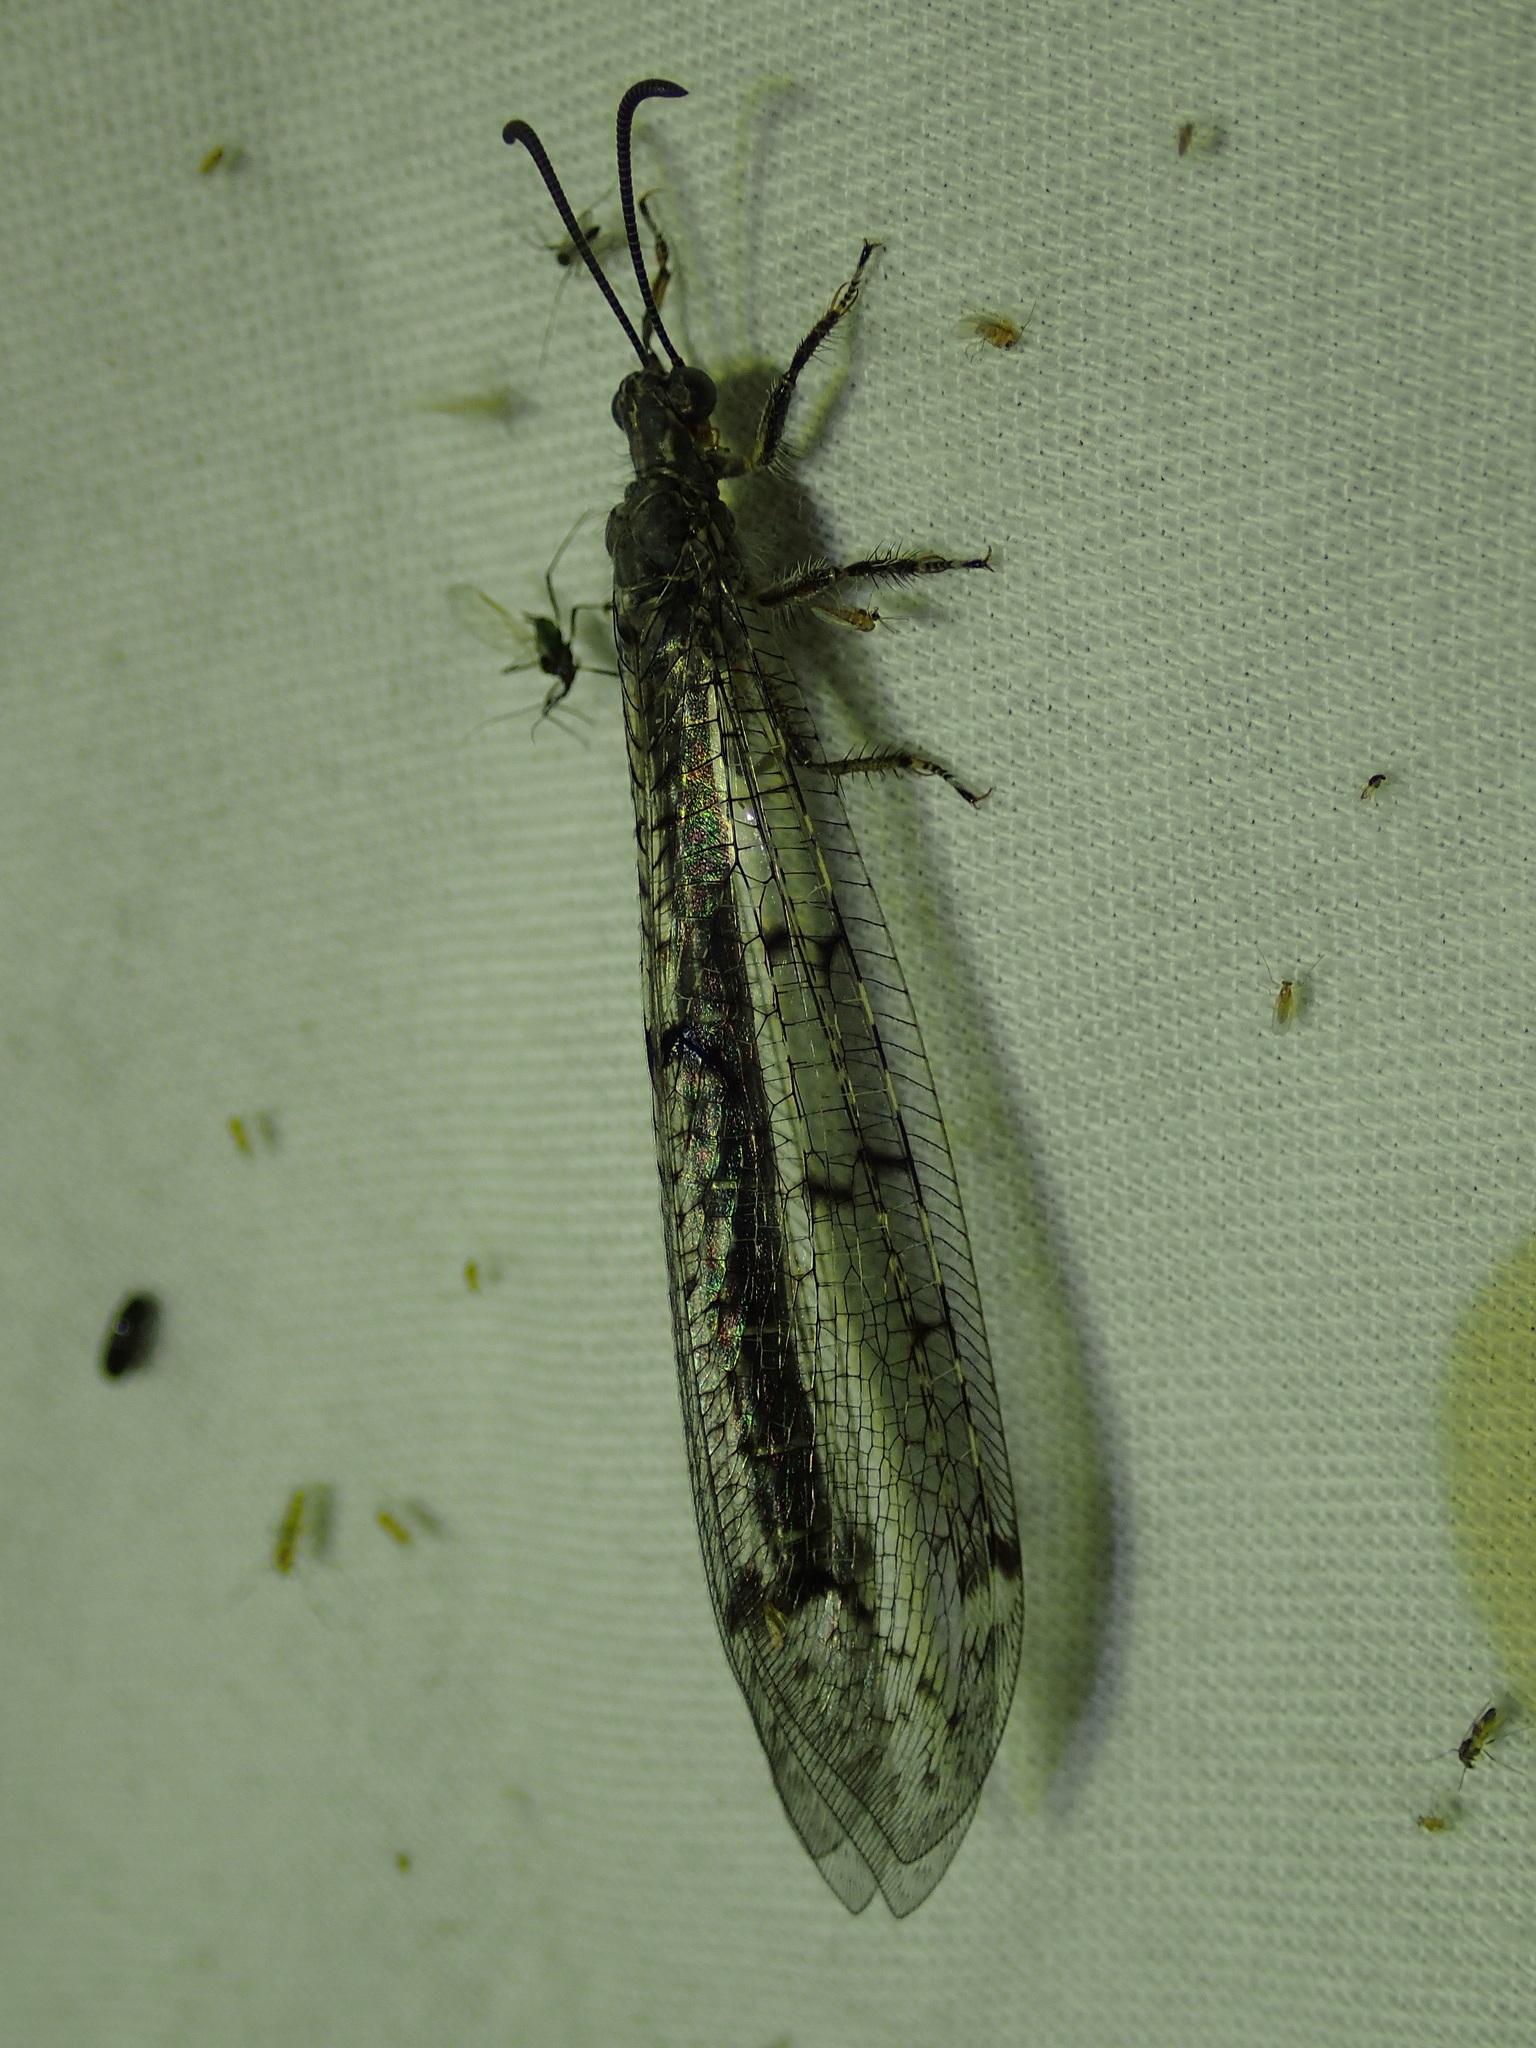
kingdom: Animalia
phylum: Arthropoda
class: Insecta
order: Neuroptera
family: Myrmeleontidae
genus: Distoleon
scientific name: Distoleon tetragrammicus
